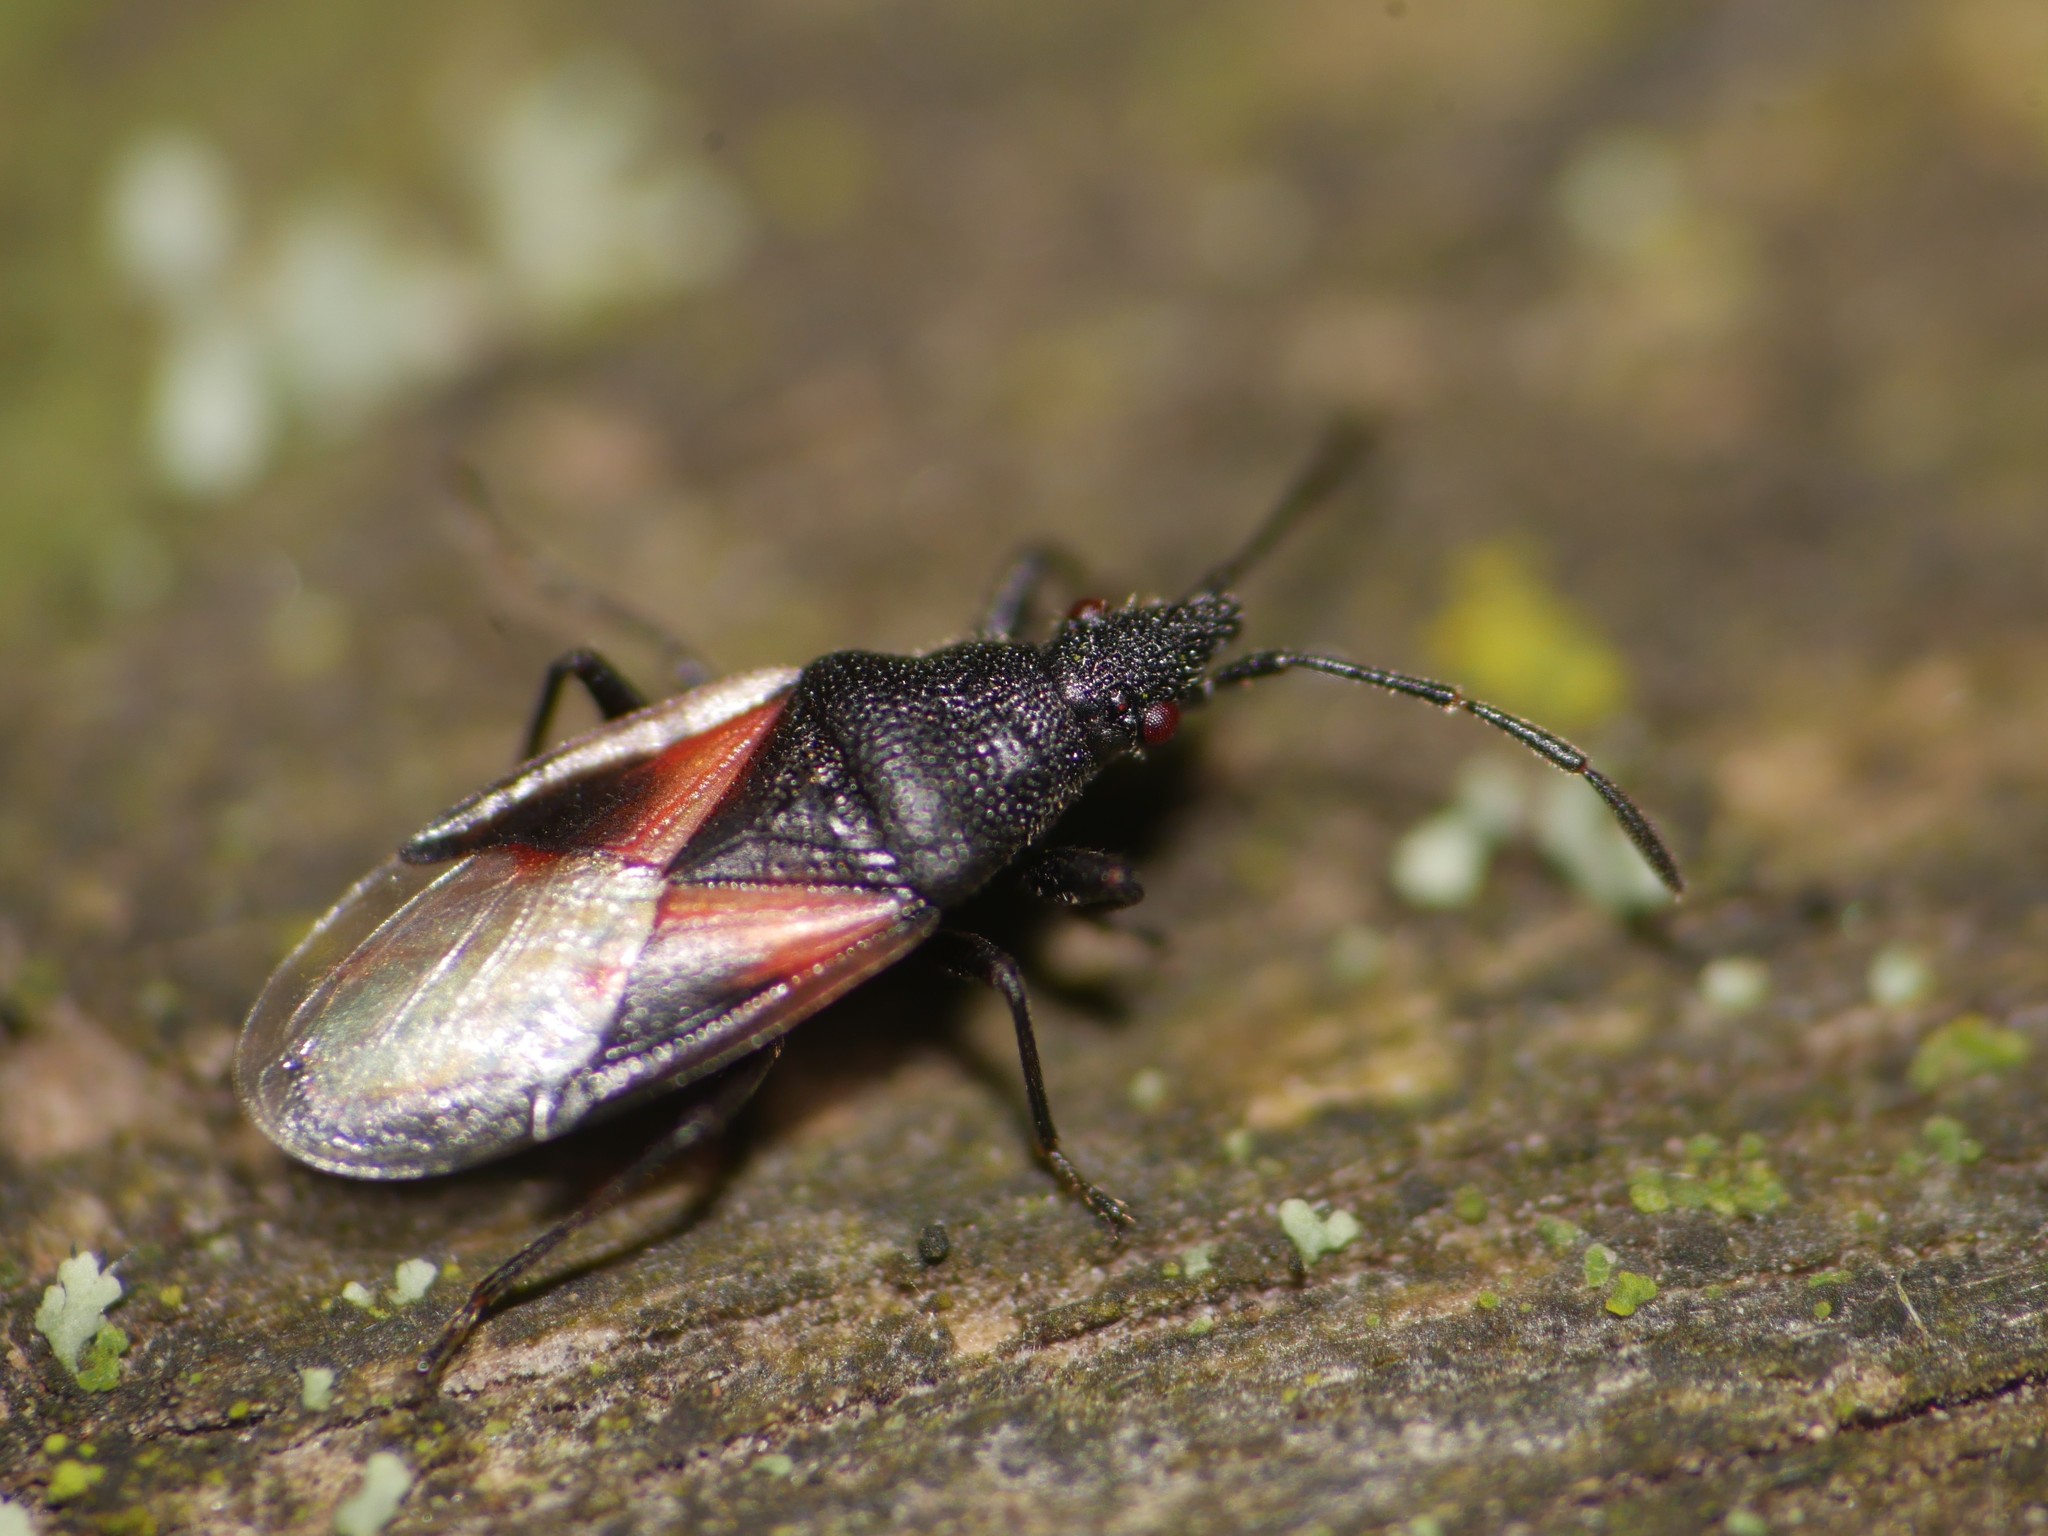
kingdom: Animalia
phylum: Arthropoda
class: Insecta
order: Hemiptera
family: Oxycarenidae
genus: Oxycarenus
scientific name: Oxycarenus lavaterae
